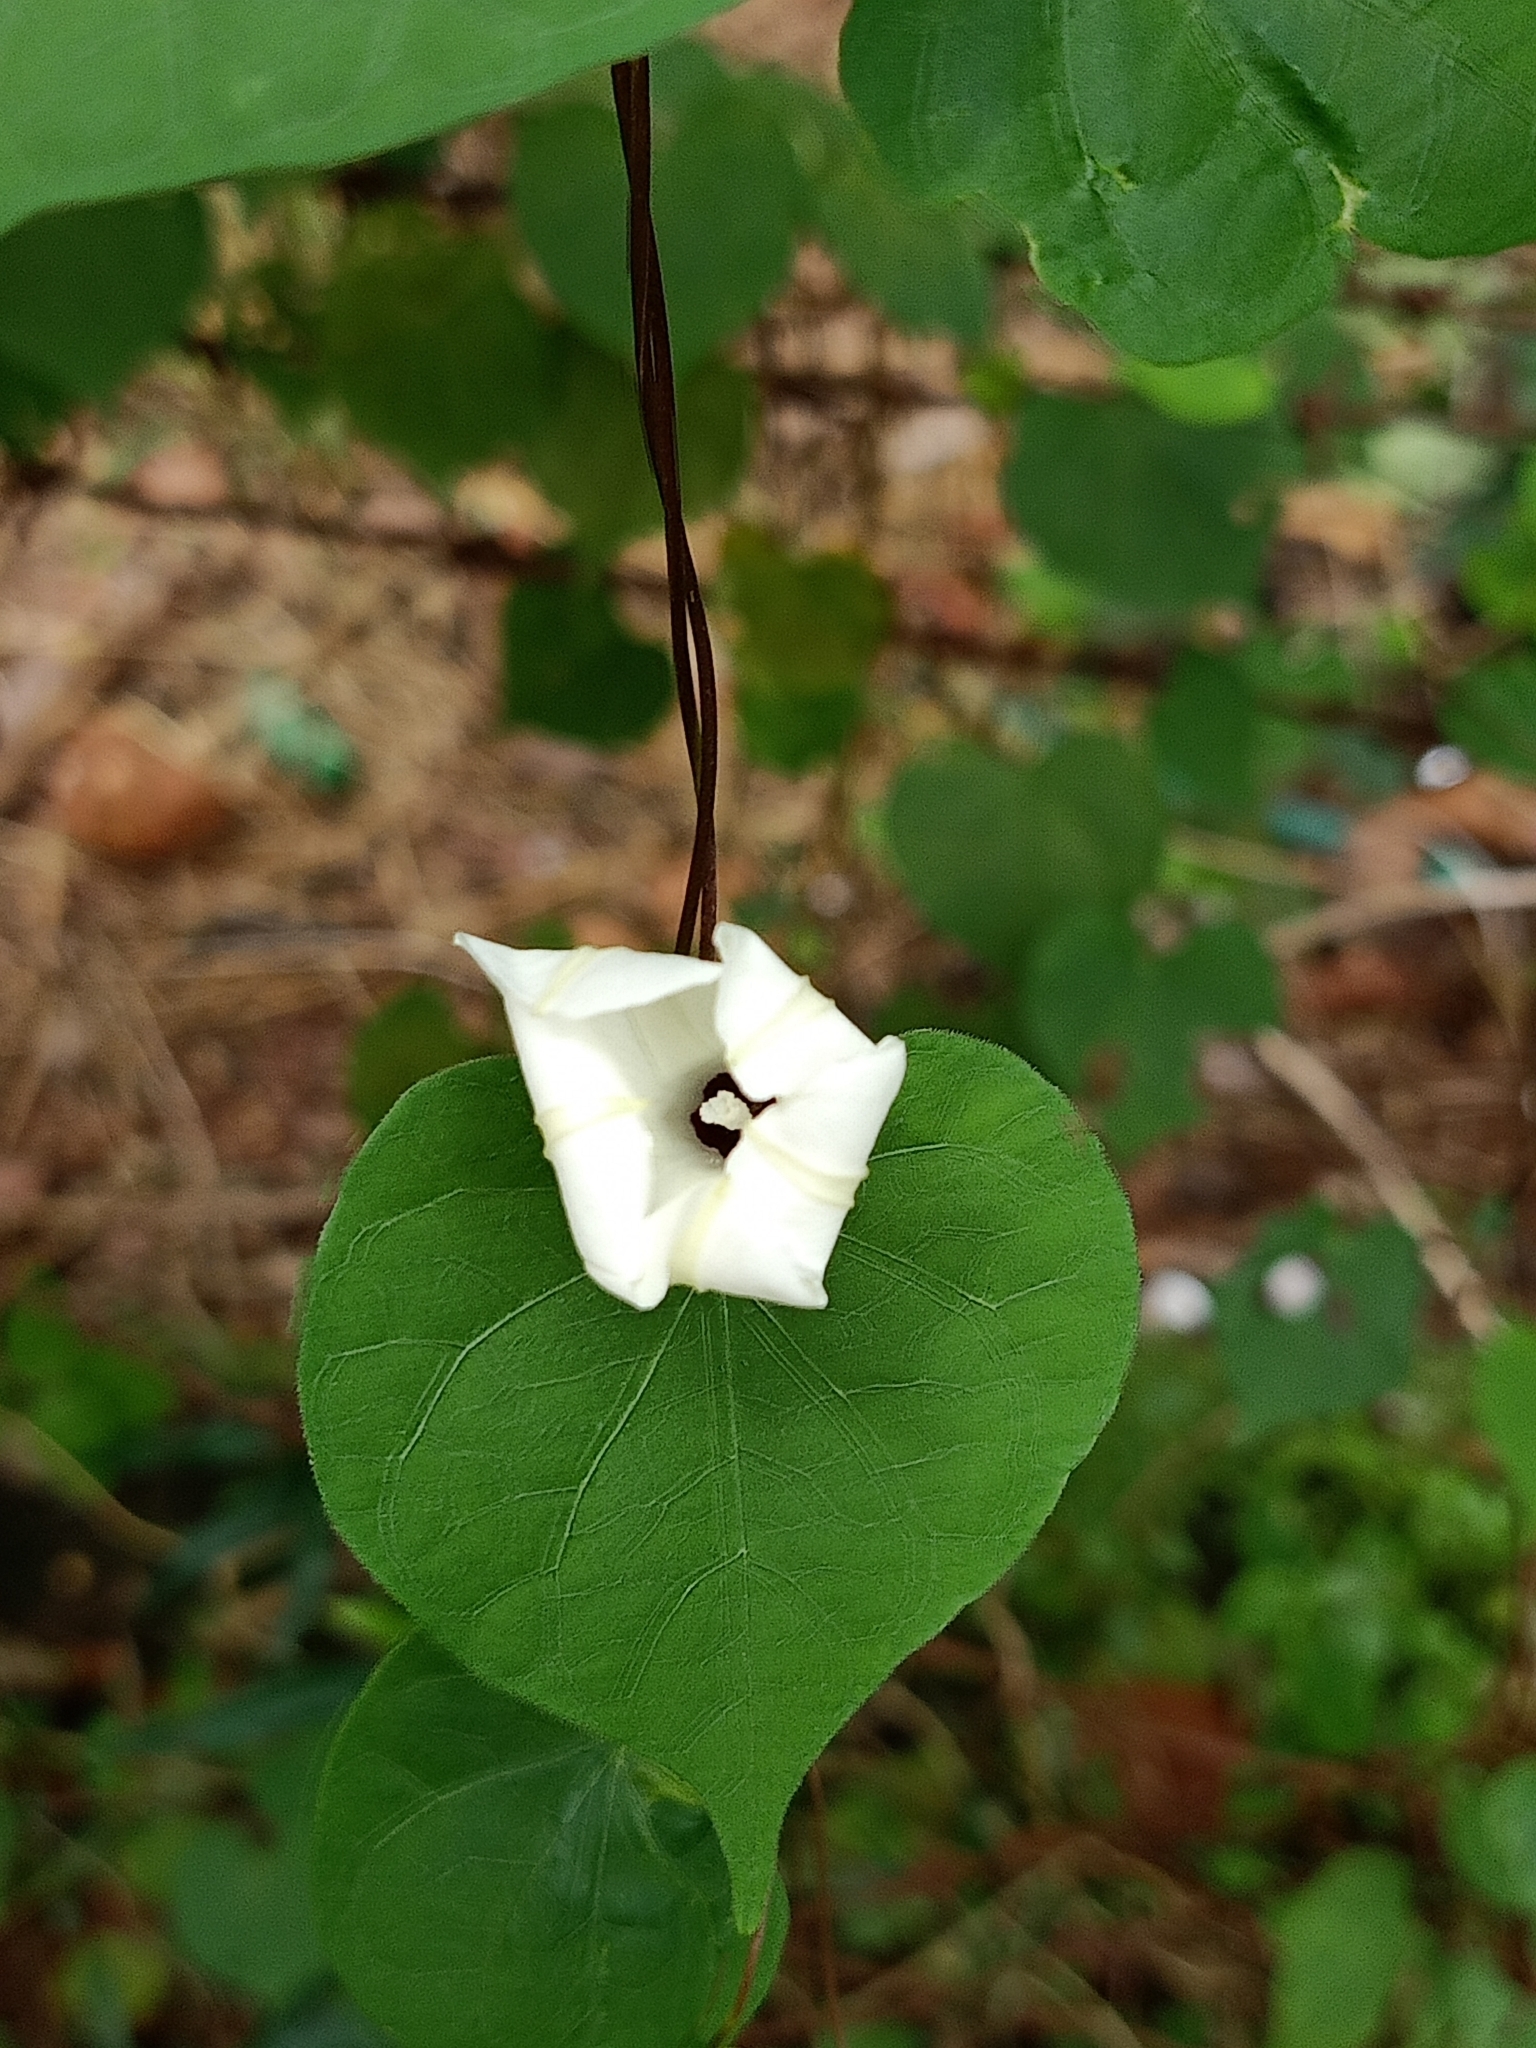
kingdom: Plantae
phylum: Tracheophyta
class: Magnoliopsida
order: Solanales
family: Convolvulaceae
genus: Ipomoea
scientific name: Ipomoea obscura
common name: Obscure morning-glory
